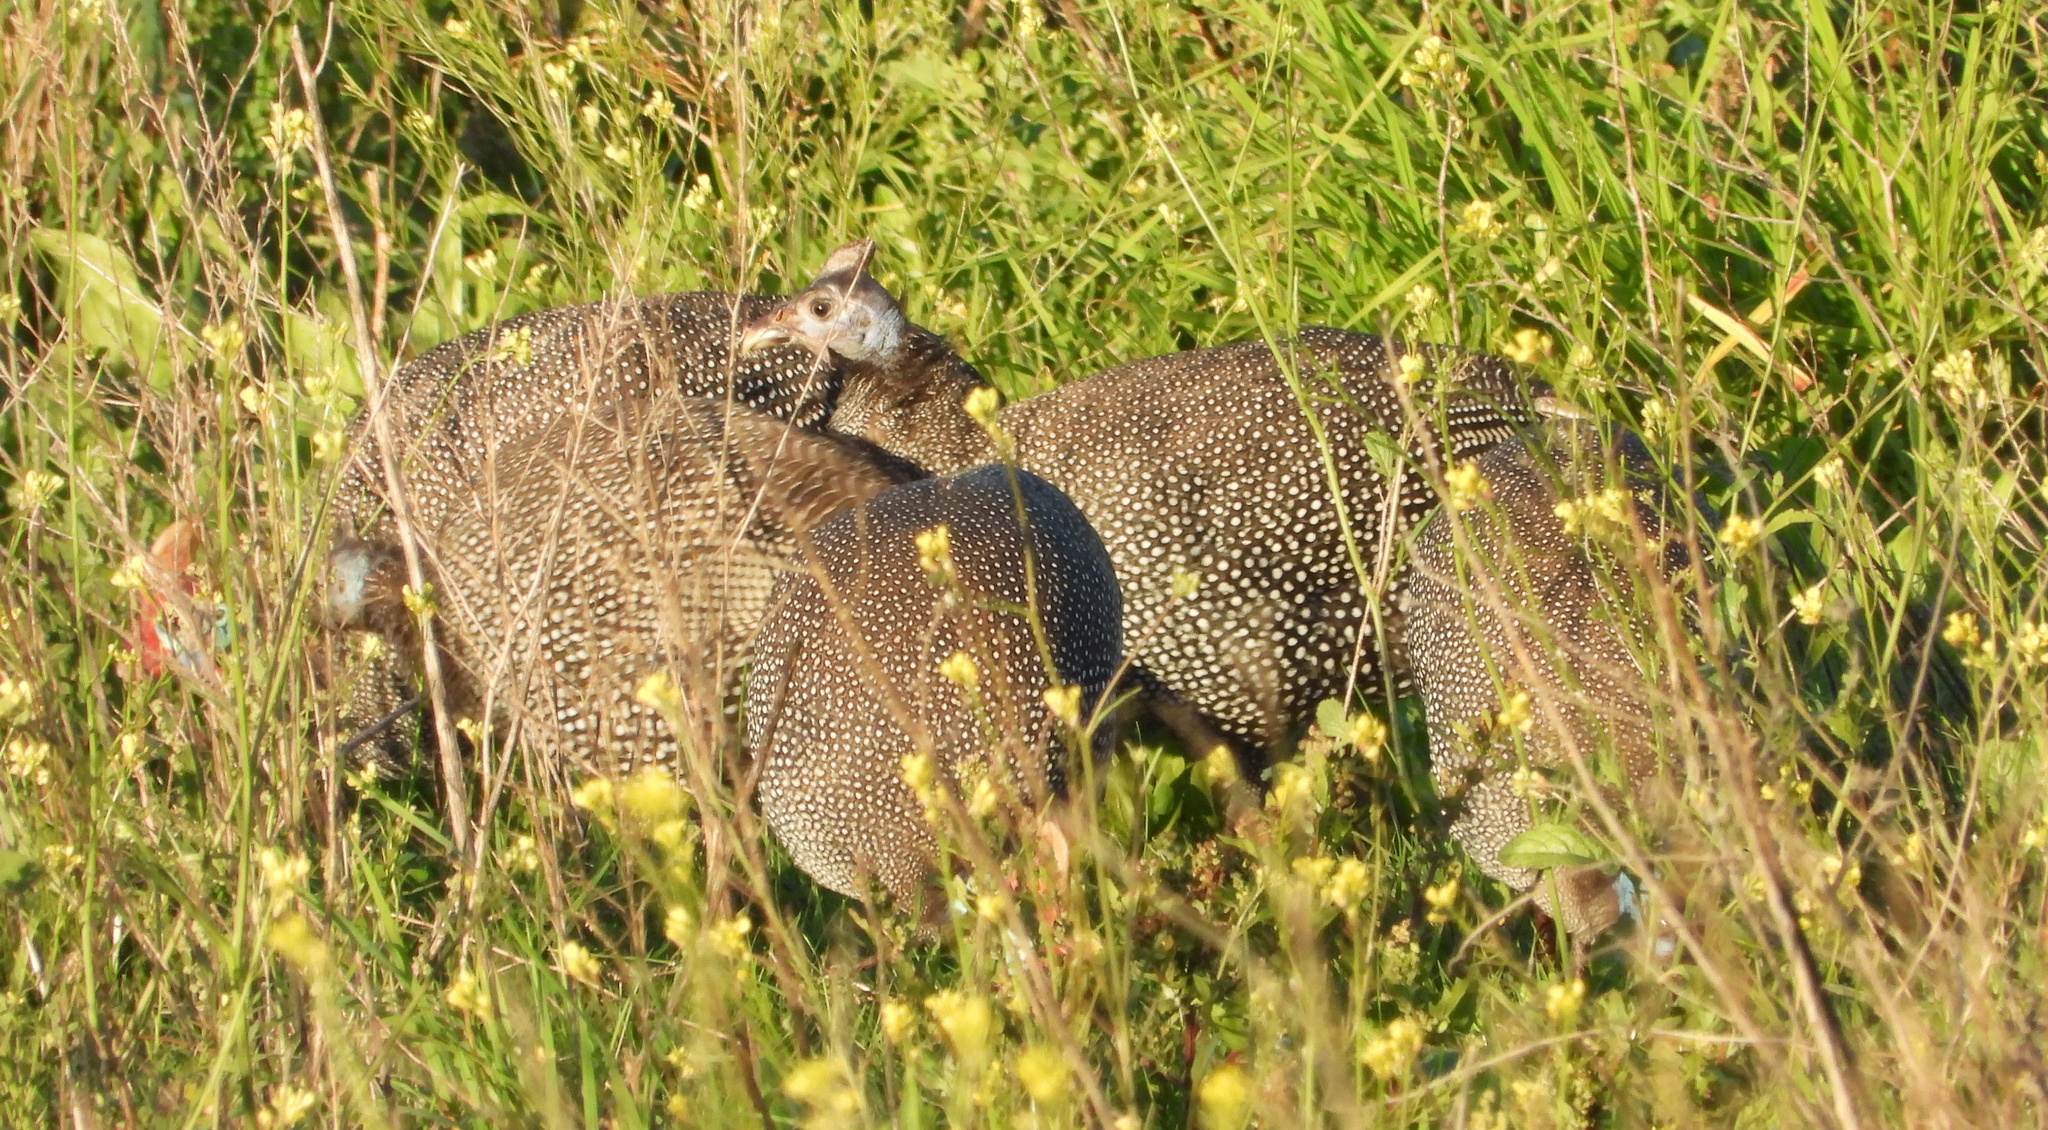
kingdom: Animalia
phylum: Chordata
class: Aves
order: Galliformes
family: Numididae
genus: Numida
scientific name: Numida meleagris
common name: Helmeted guineafowl
